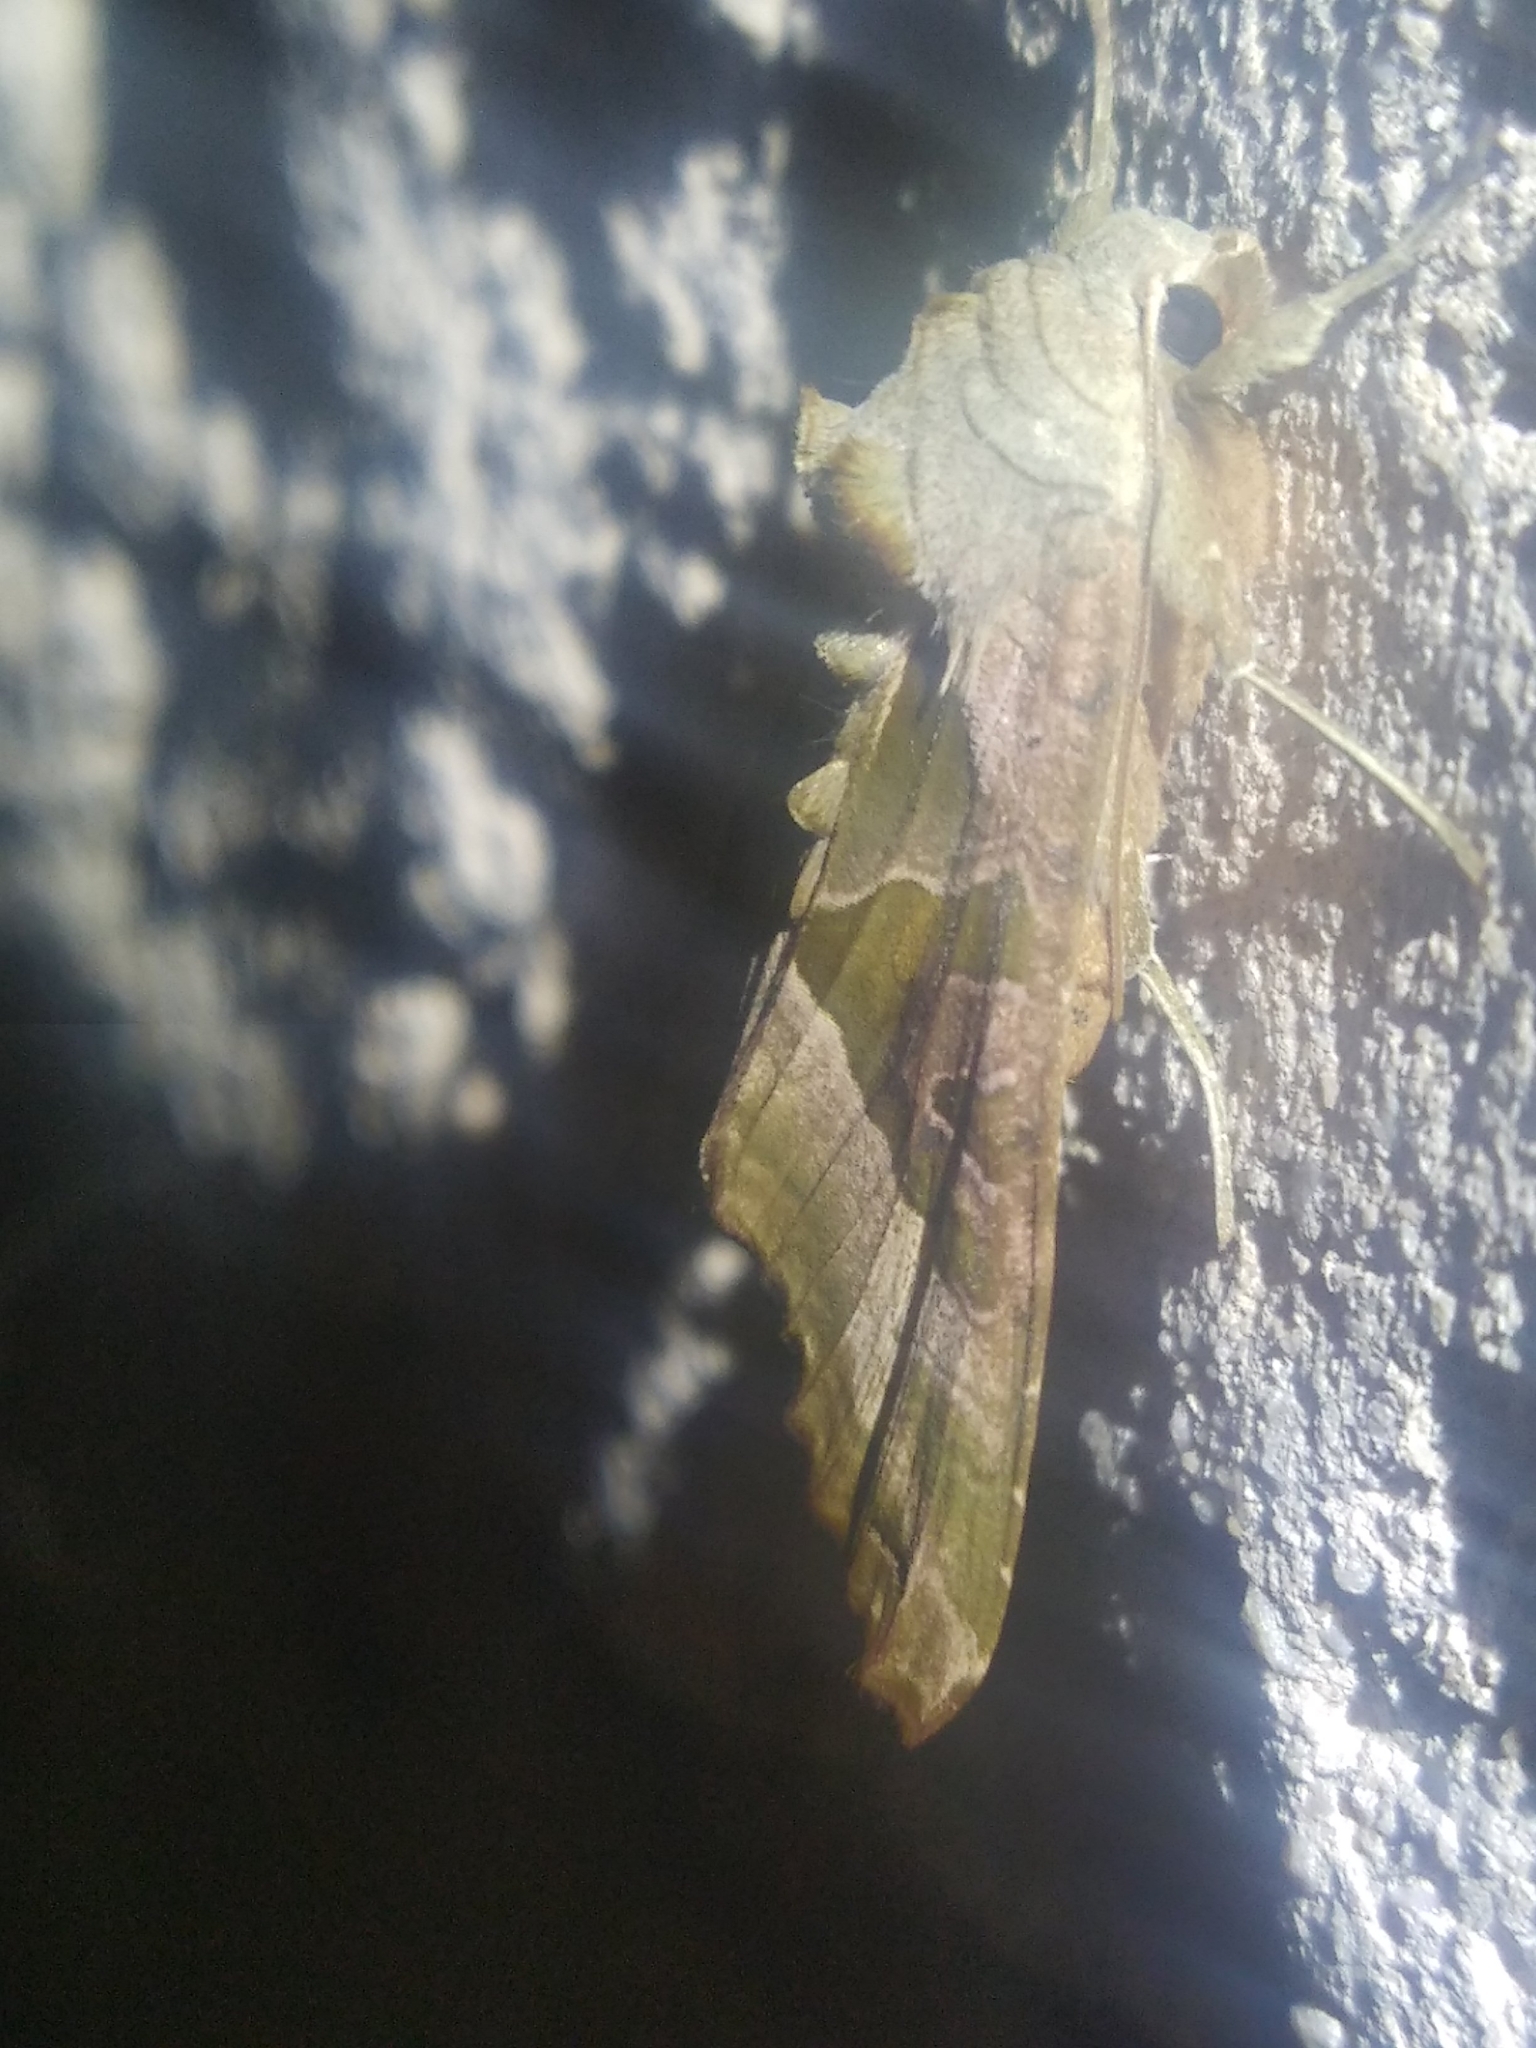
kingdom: Animalia
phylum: Arthropoda
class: Insecta
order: Lepidoptera
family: Noctuidae
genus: Phlogophora
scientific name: Phlogophora meticulosa
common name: Angle shades
